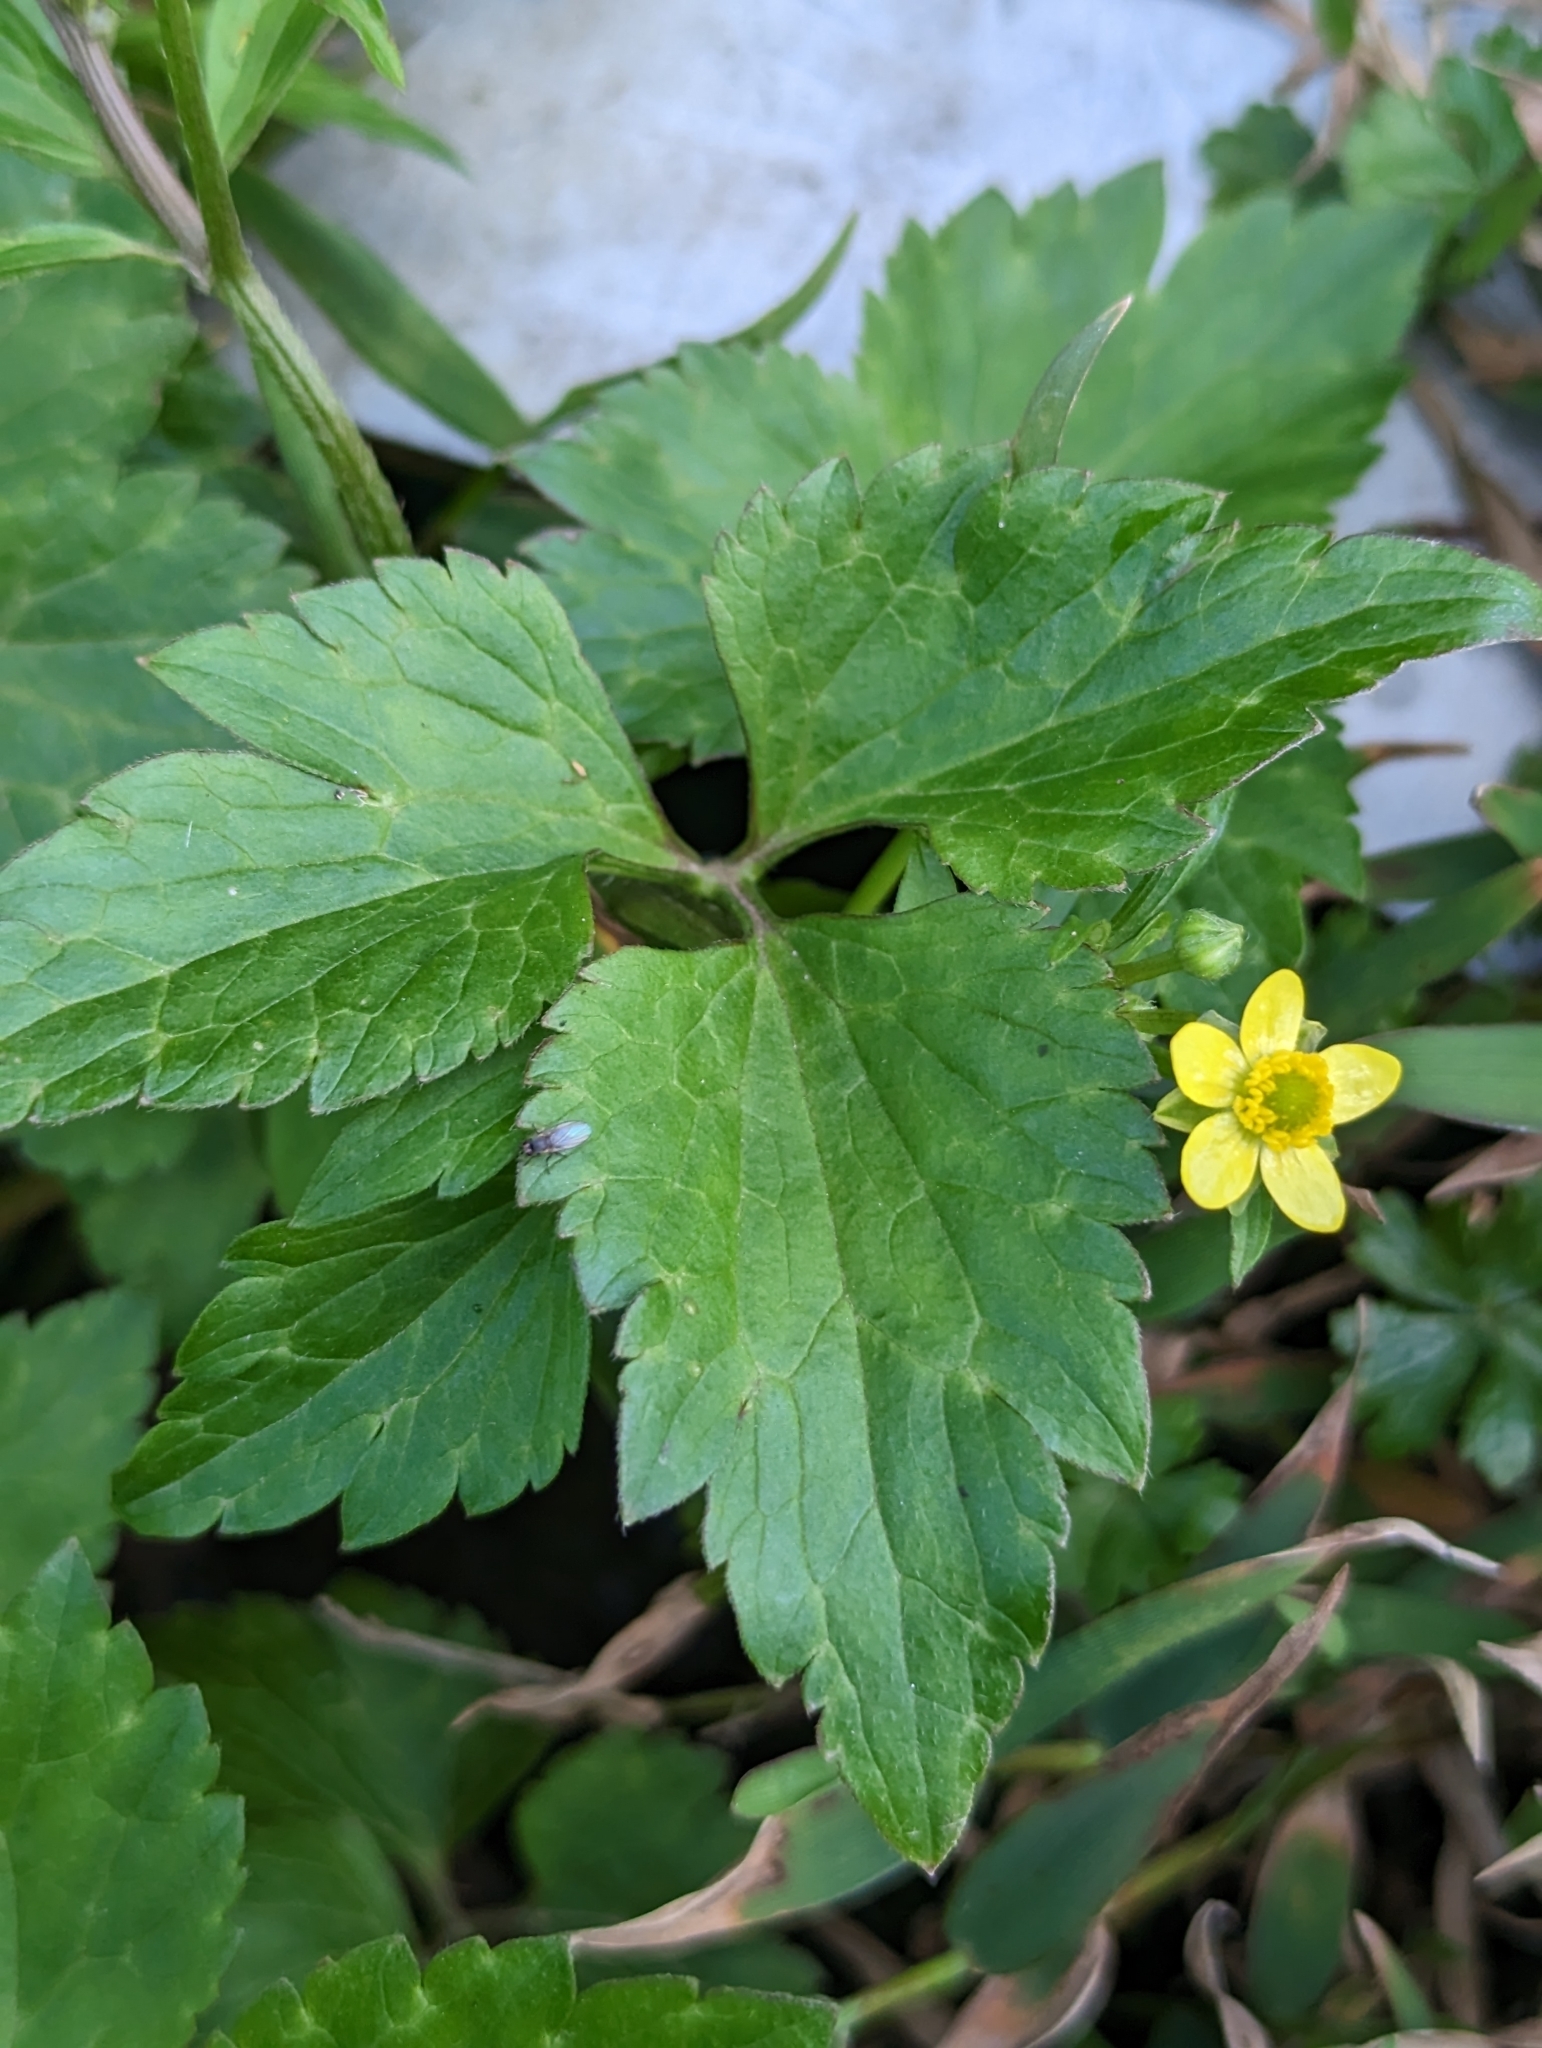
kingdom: Plantae
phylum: Tracheophyta
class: Magnoliopsida
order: Ranunculales
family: Ranunculaceae
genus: Ranunculus
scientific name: Ranunculus cantoniensis
